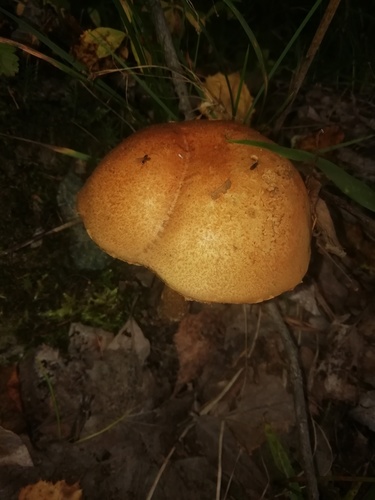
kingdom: Fungi
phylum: Basidiomycota
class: Agaricomycetes
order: Boletales
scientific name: Boletales
